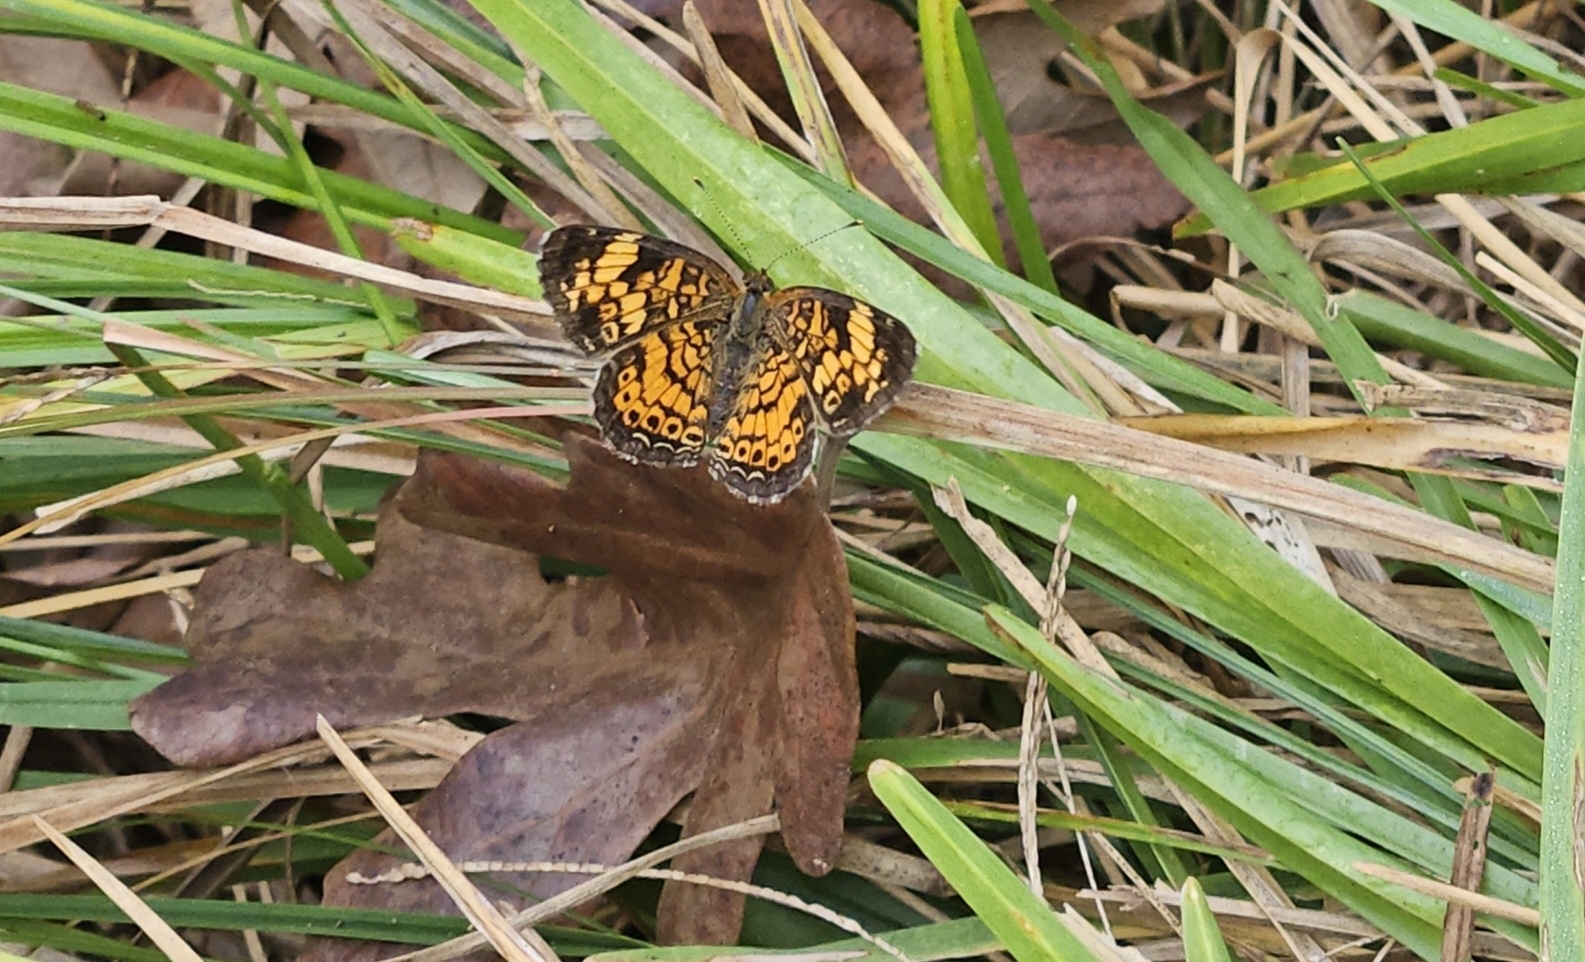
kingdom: Animalia
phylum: Arthropoda
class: Insecta
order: Lepidoptera
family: Nymphalidae
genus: Phyciodes
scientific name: Phyciodes tharos
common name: Pearl crescent
